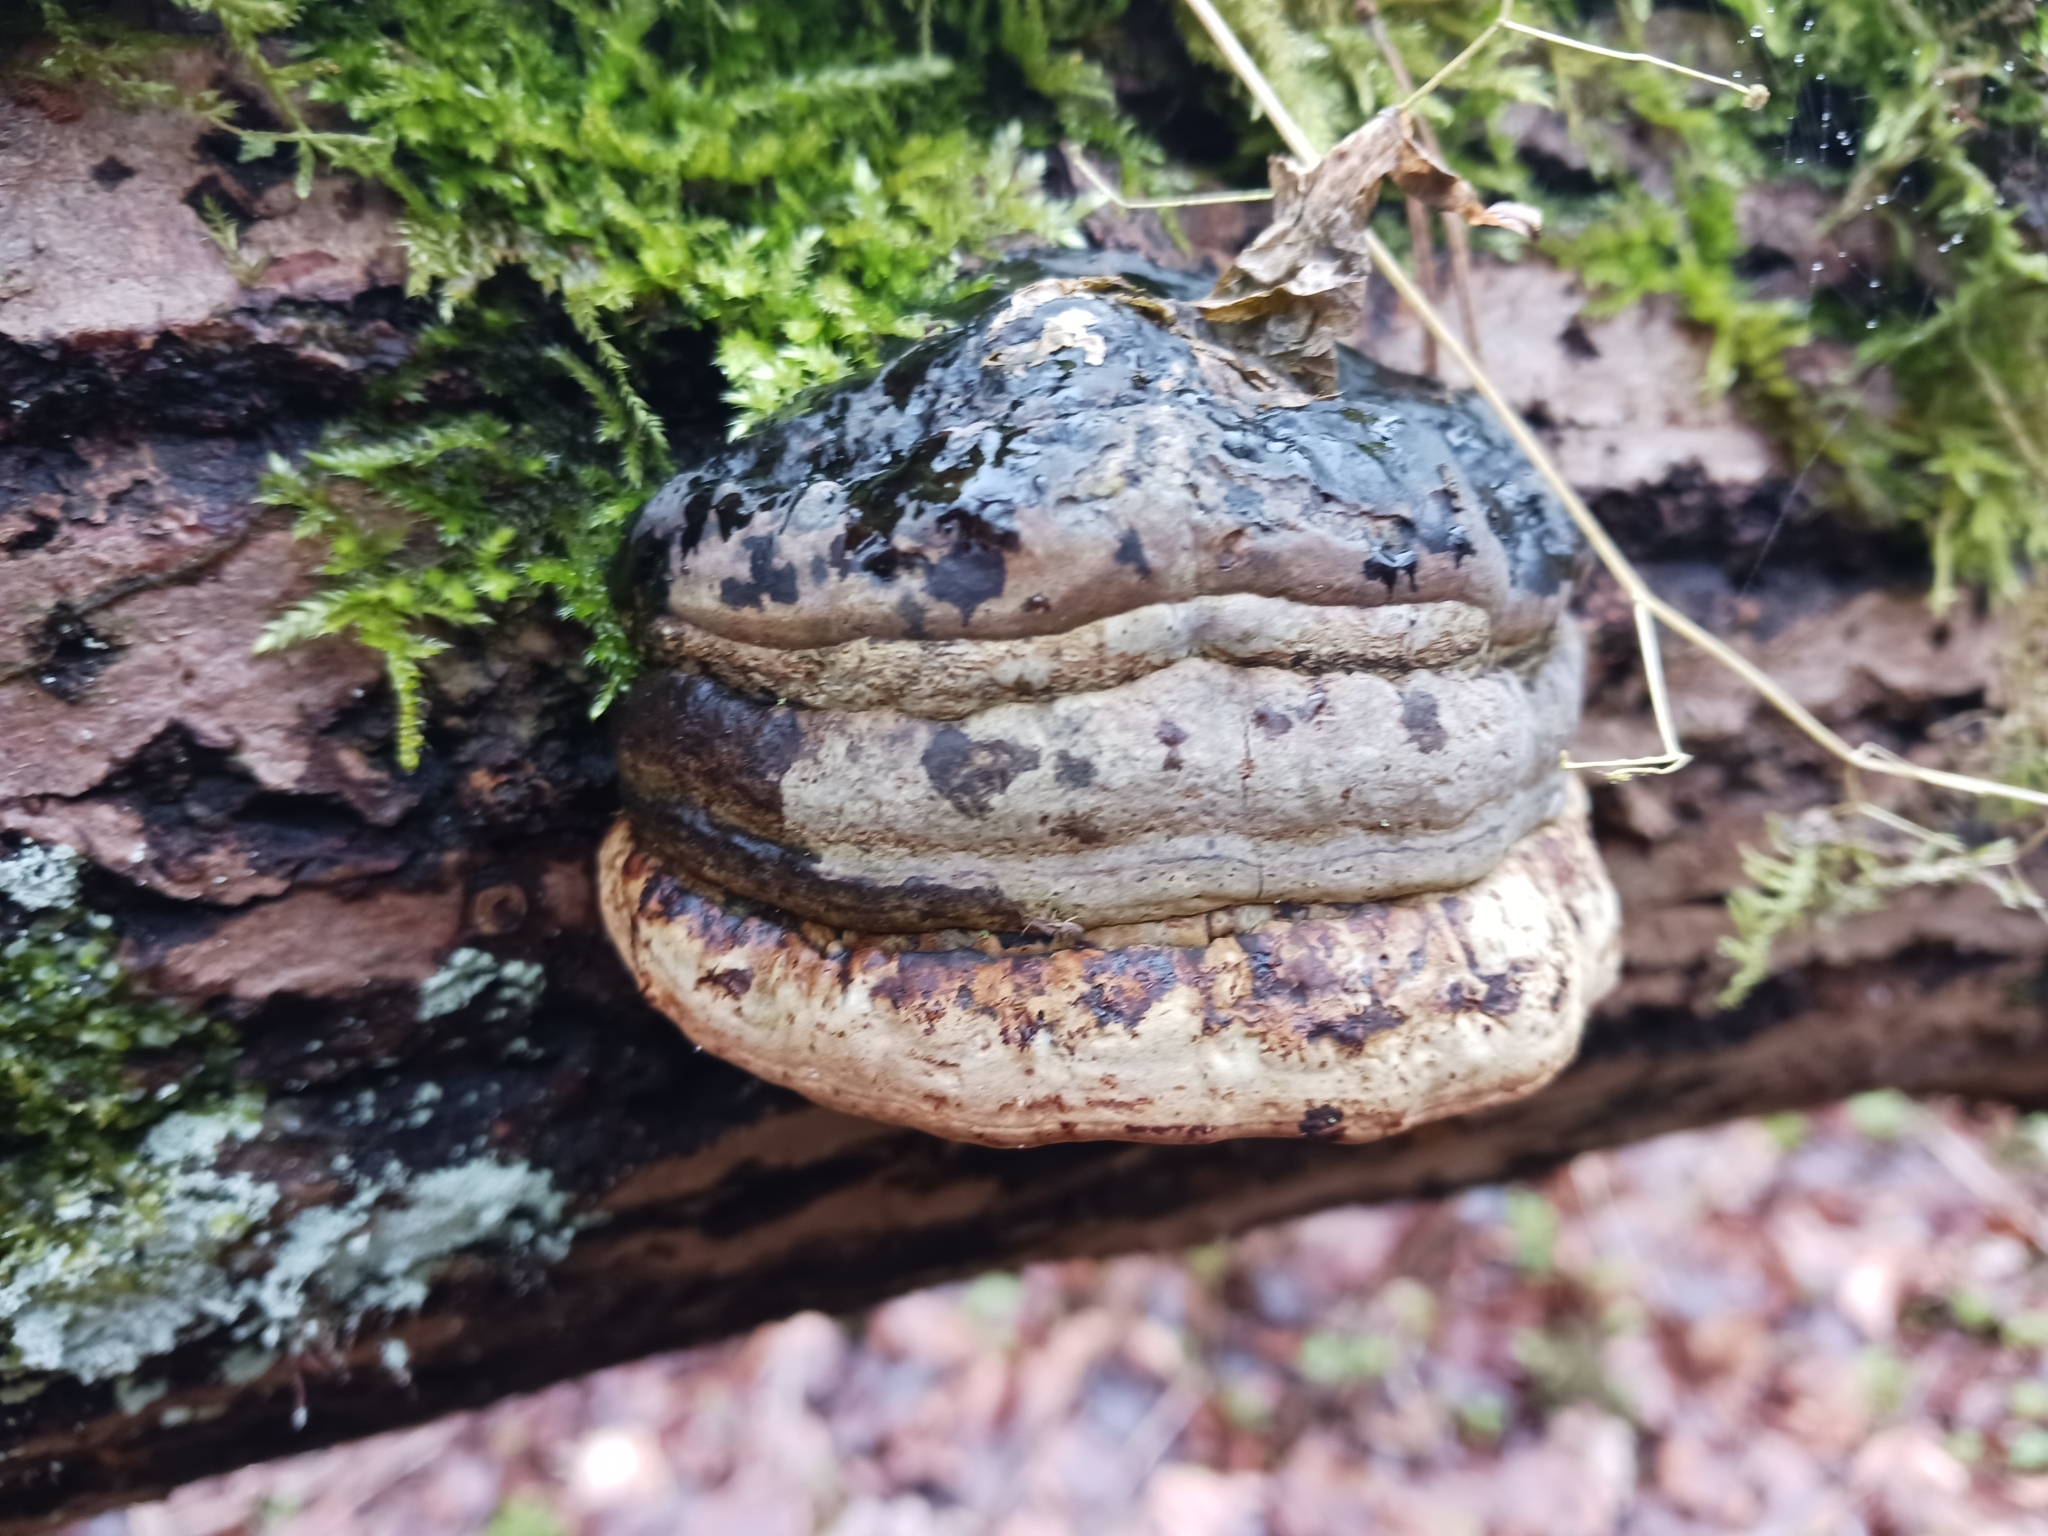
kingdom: Fungi
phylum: Basidiomycota
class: Agaricomycetes
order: Polyporales
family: Polyporaceae
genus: Fomes
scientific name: Fomes
